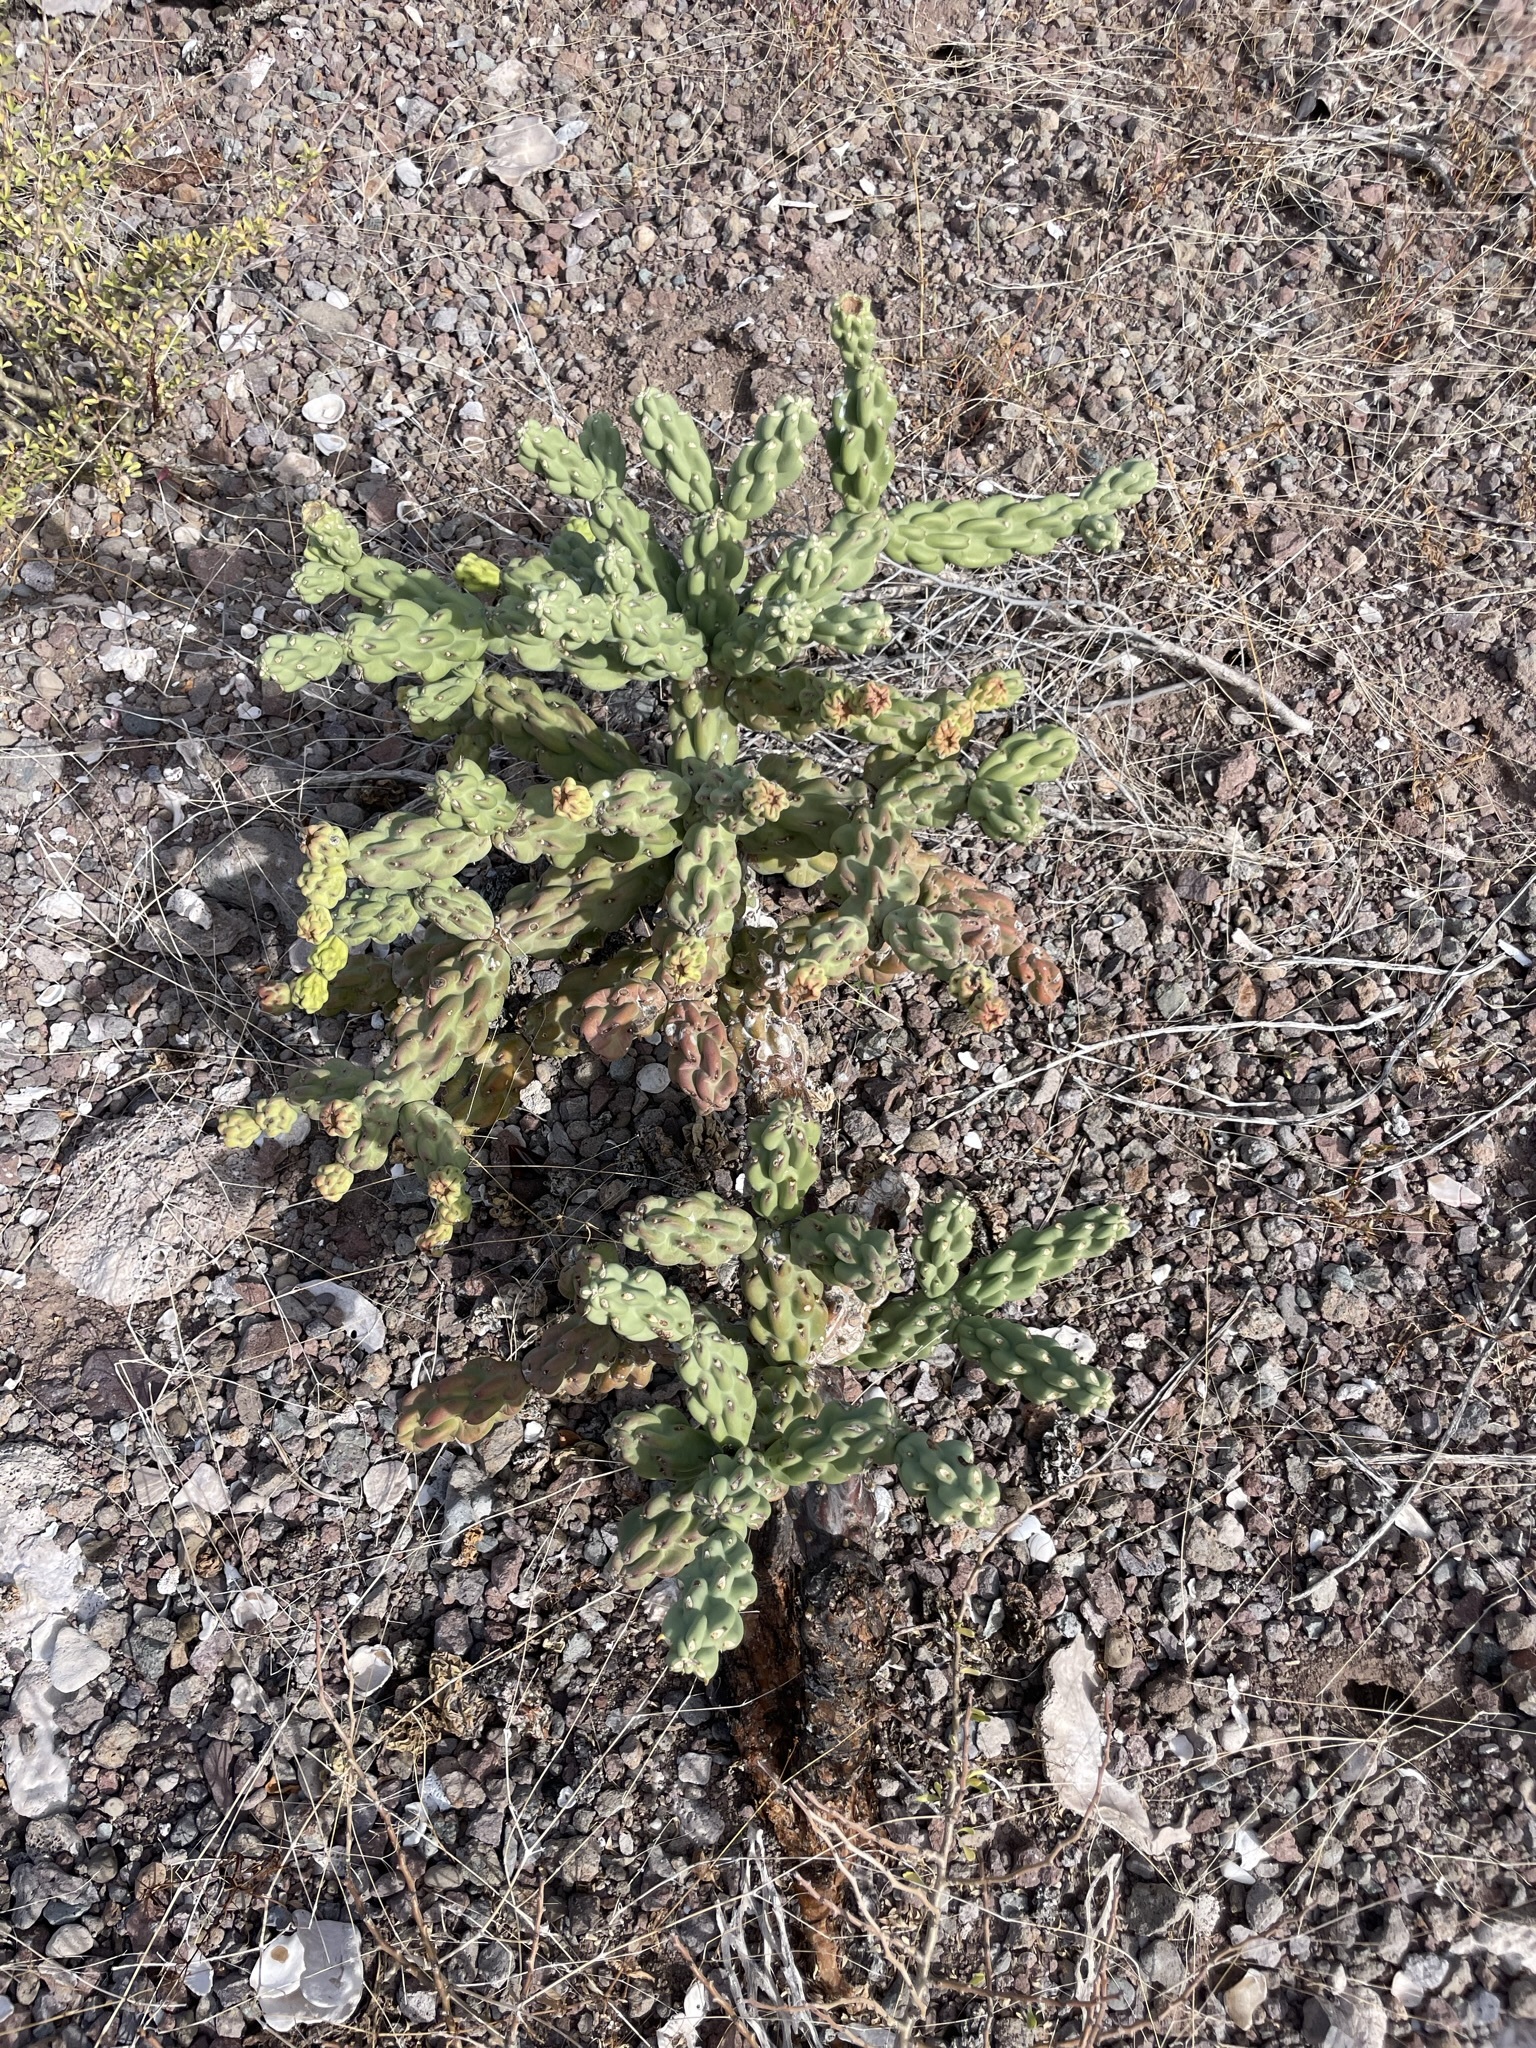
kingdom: Plantae
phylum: Tracheophyta
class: Magnoliopsida
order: Caryophyllales
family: Cactaceae
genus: Cylindropuntia
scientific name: Cylindropuntia cholla
